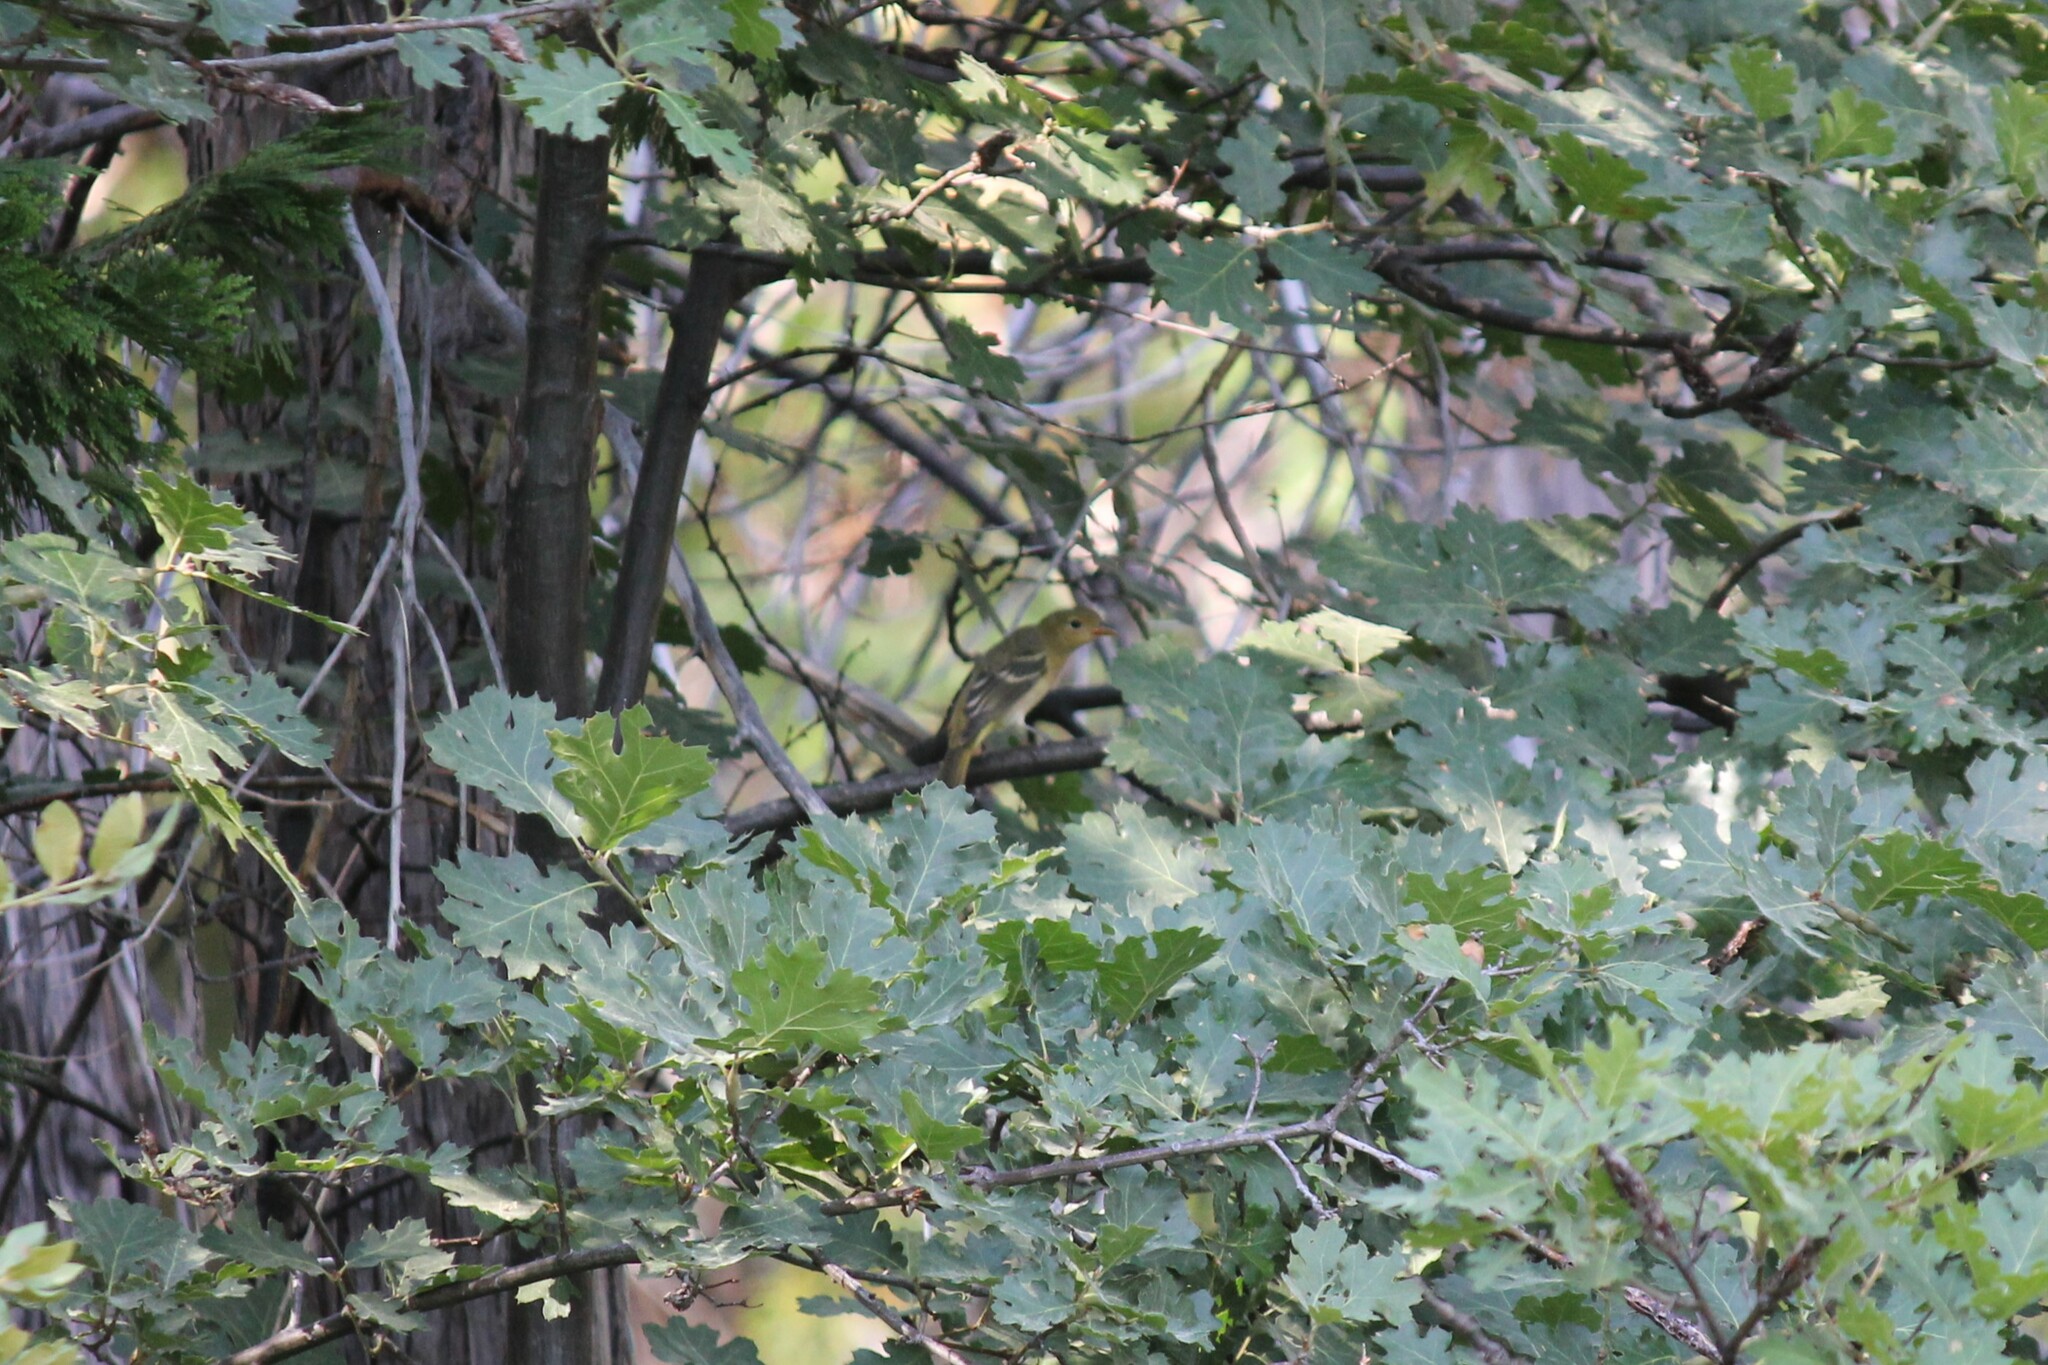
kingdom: Animalia
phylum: Chordata
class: Aves
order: Passeriformes
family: Cardinalidae
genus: Piranga
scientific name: Piranga ludoviciana
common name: Western tanager
